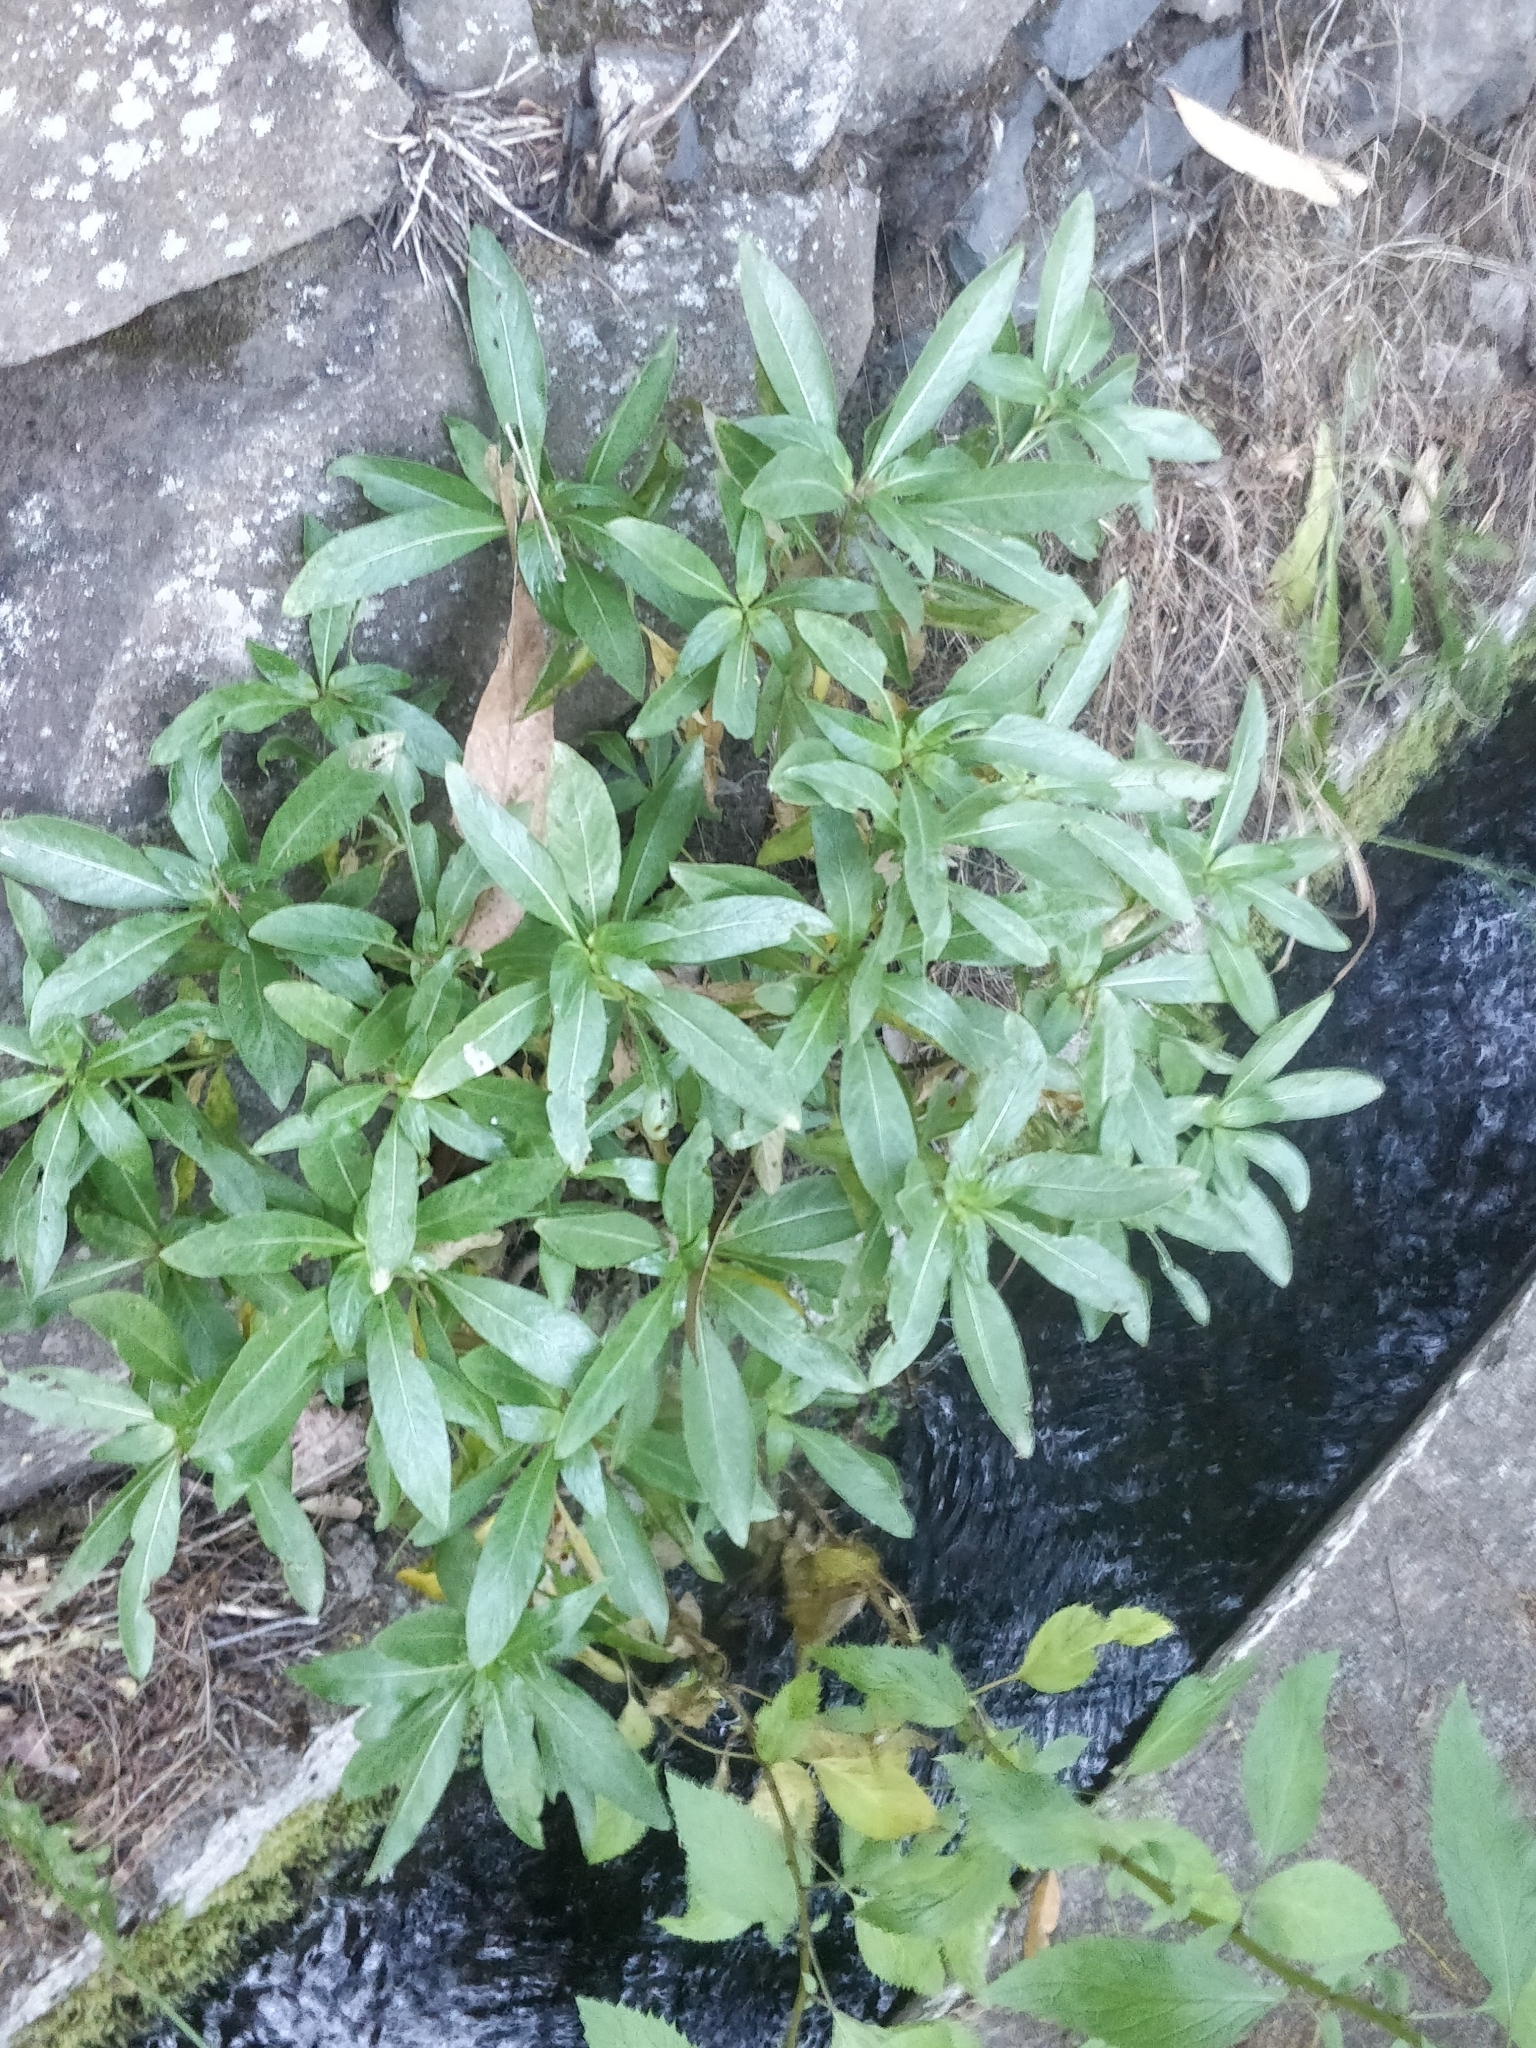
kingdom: Plantae
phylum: Tracheophyta
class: Magnoliopsida
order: Gentianales
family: Rubiaceae
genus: Phyllis
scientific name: Phyllis nobla
